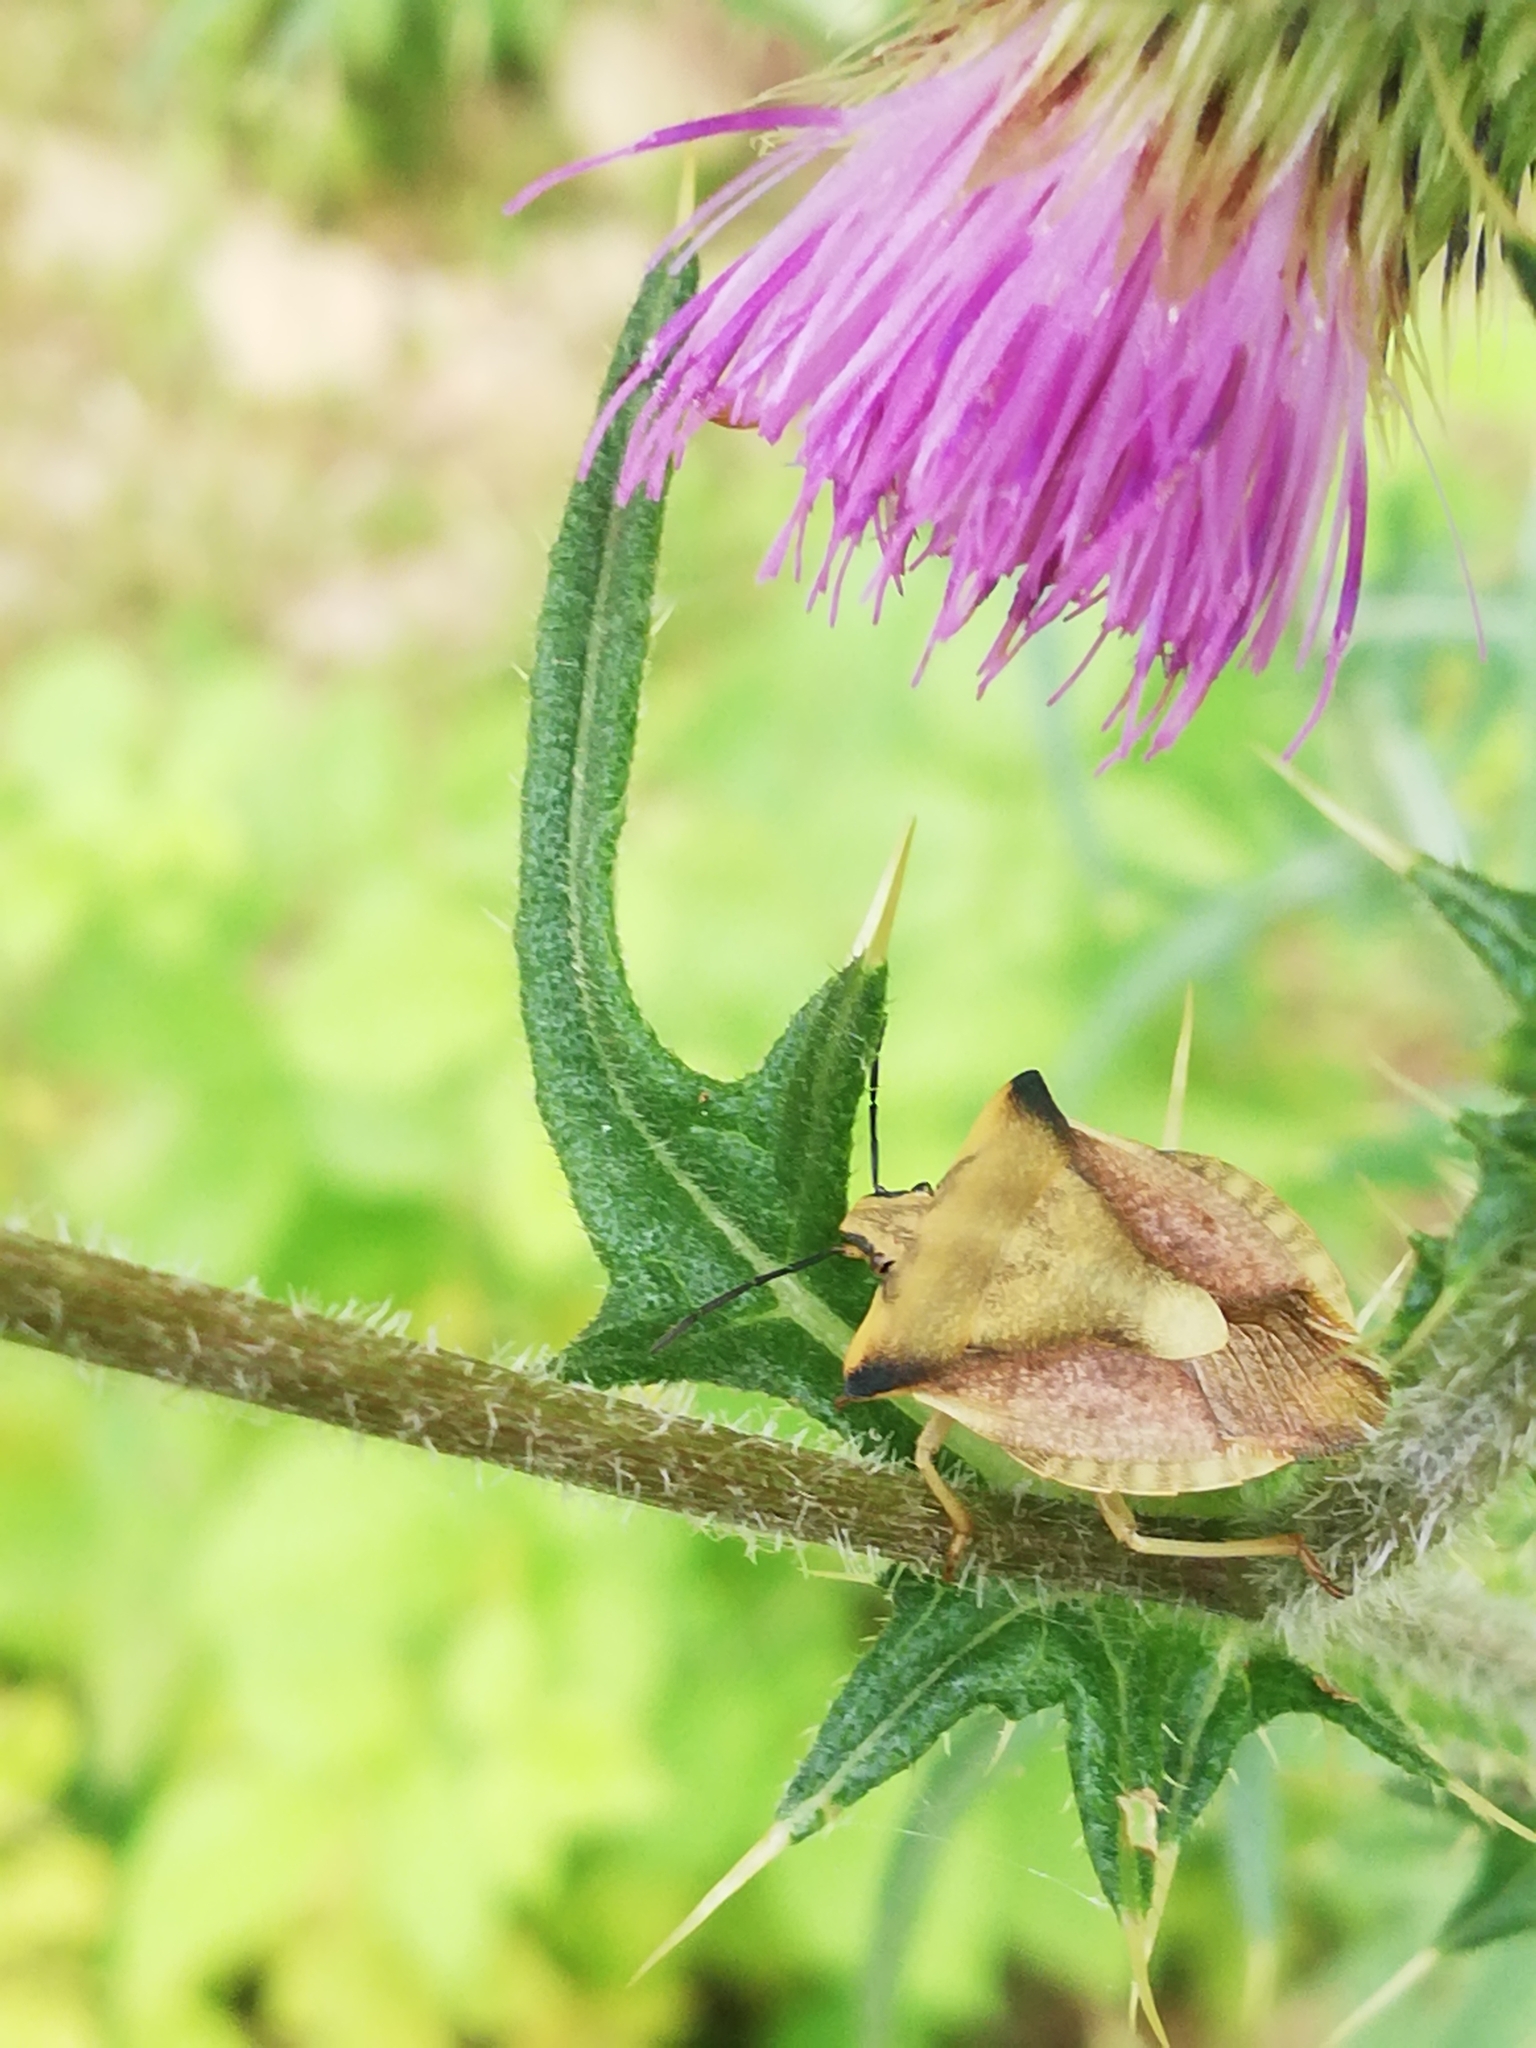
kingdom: Animalia
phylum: Arthropoda
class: Insecta
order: Hemiptera
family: Pentatomidae
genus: Carpocoris
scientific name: Carpocoris fuscispinus
